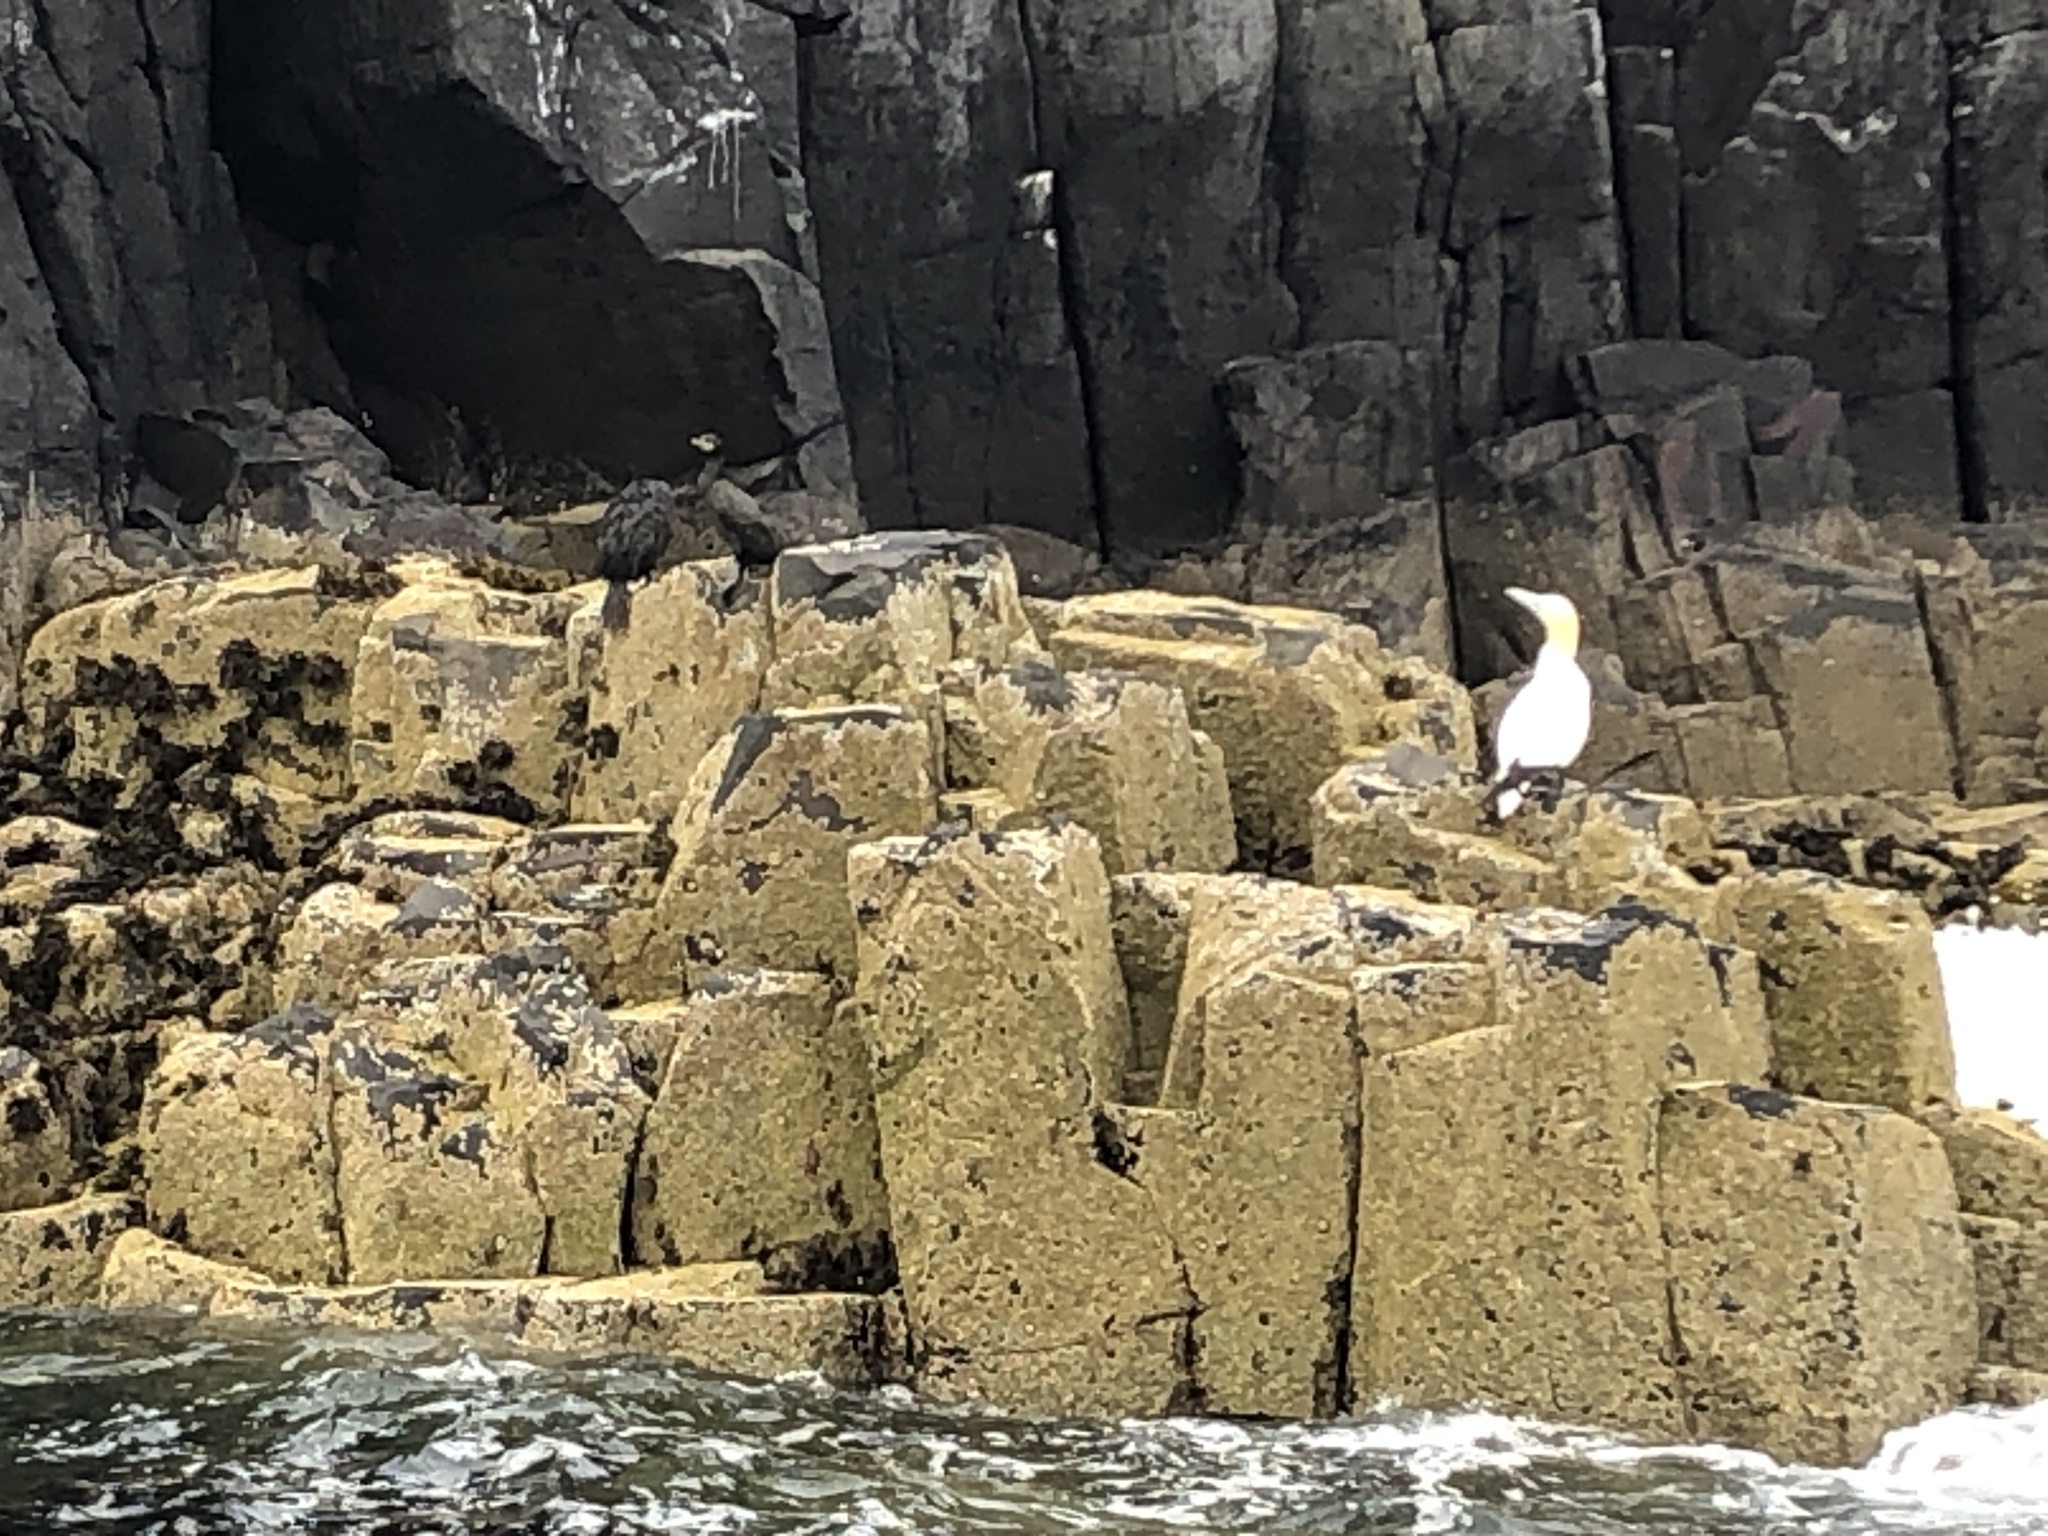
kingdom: Animalia
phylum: Chordata
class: Aves
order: Suliformes
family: Sulidae
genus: Morus
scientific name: Morus bassanus
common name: Northern gannet
